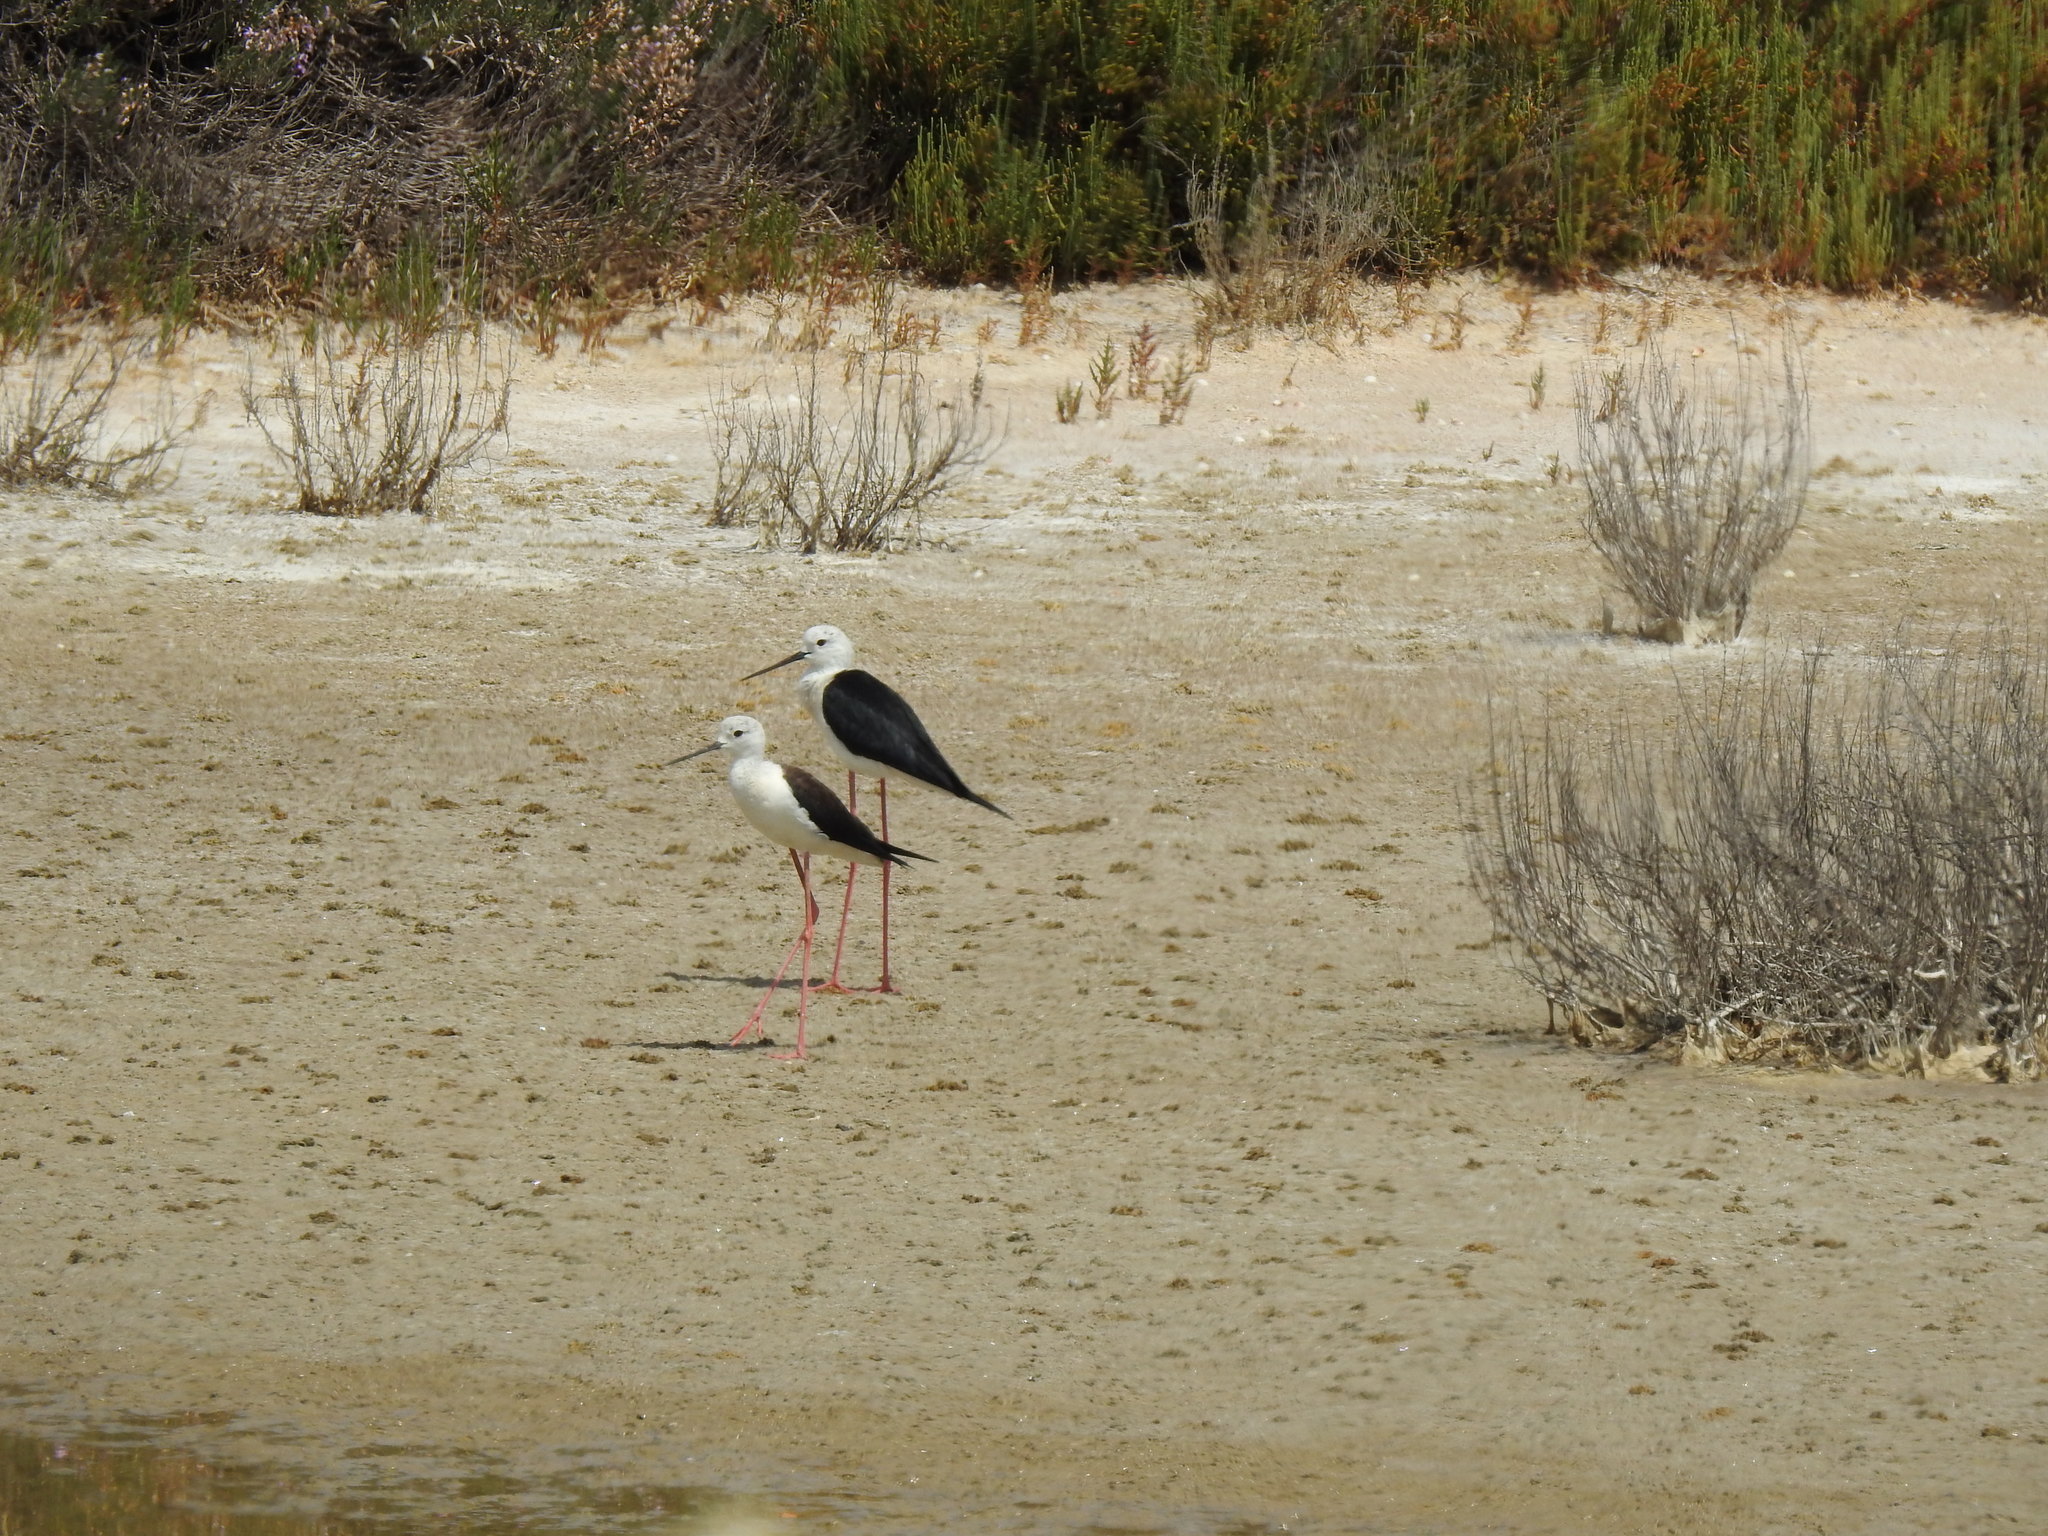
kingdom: Animalia
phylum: Chordata
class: Aves
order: Charadriiformes
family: Recurvirostridae
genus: Himantopus
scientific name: Himantopus himantopus
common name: Black-winged stilt
